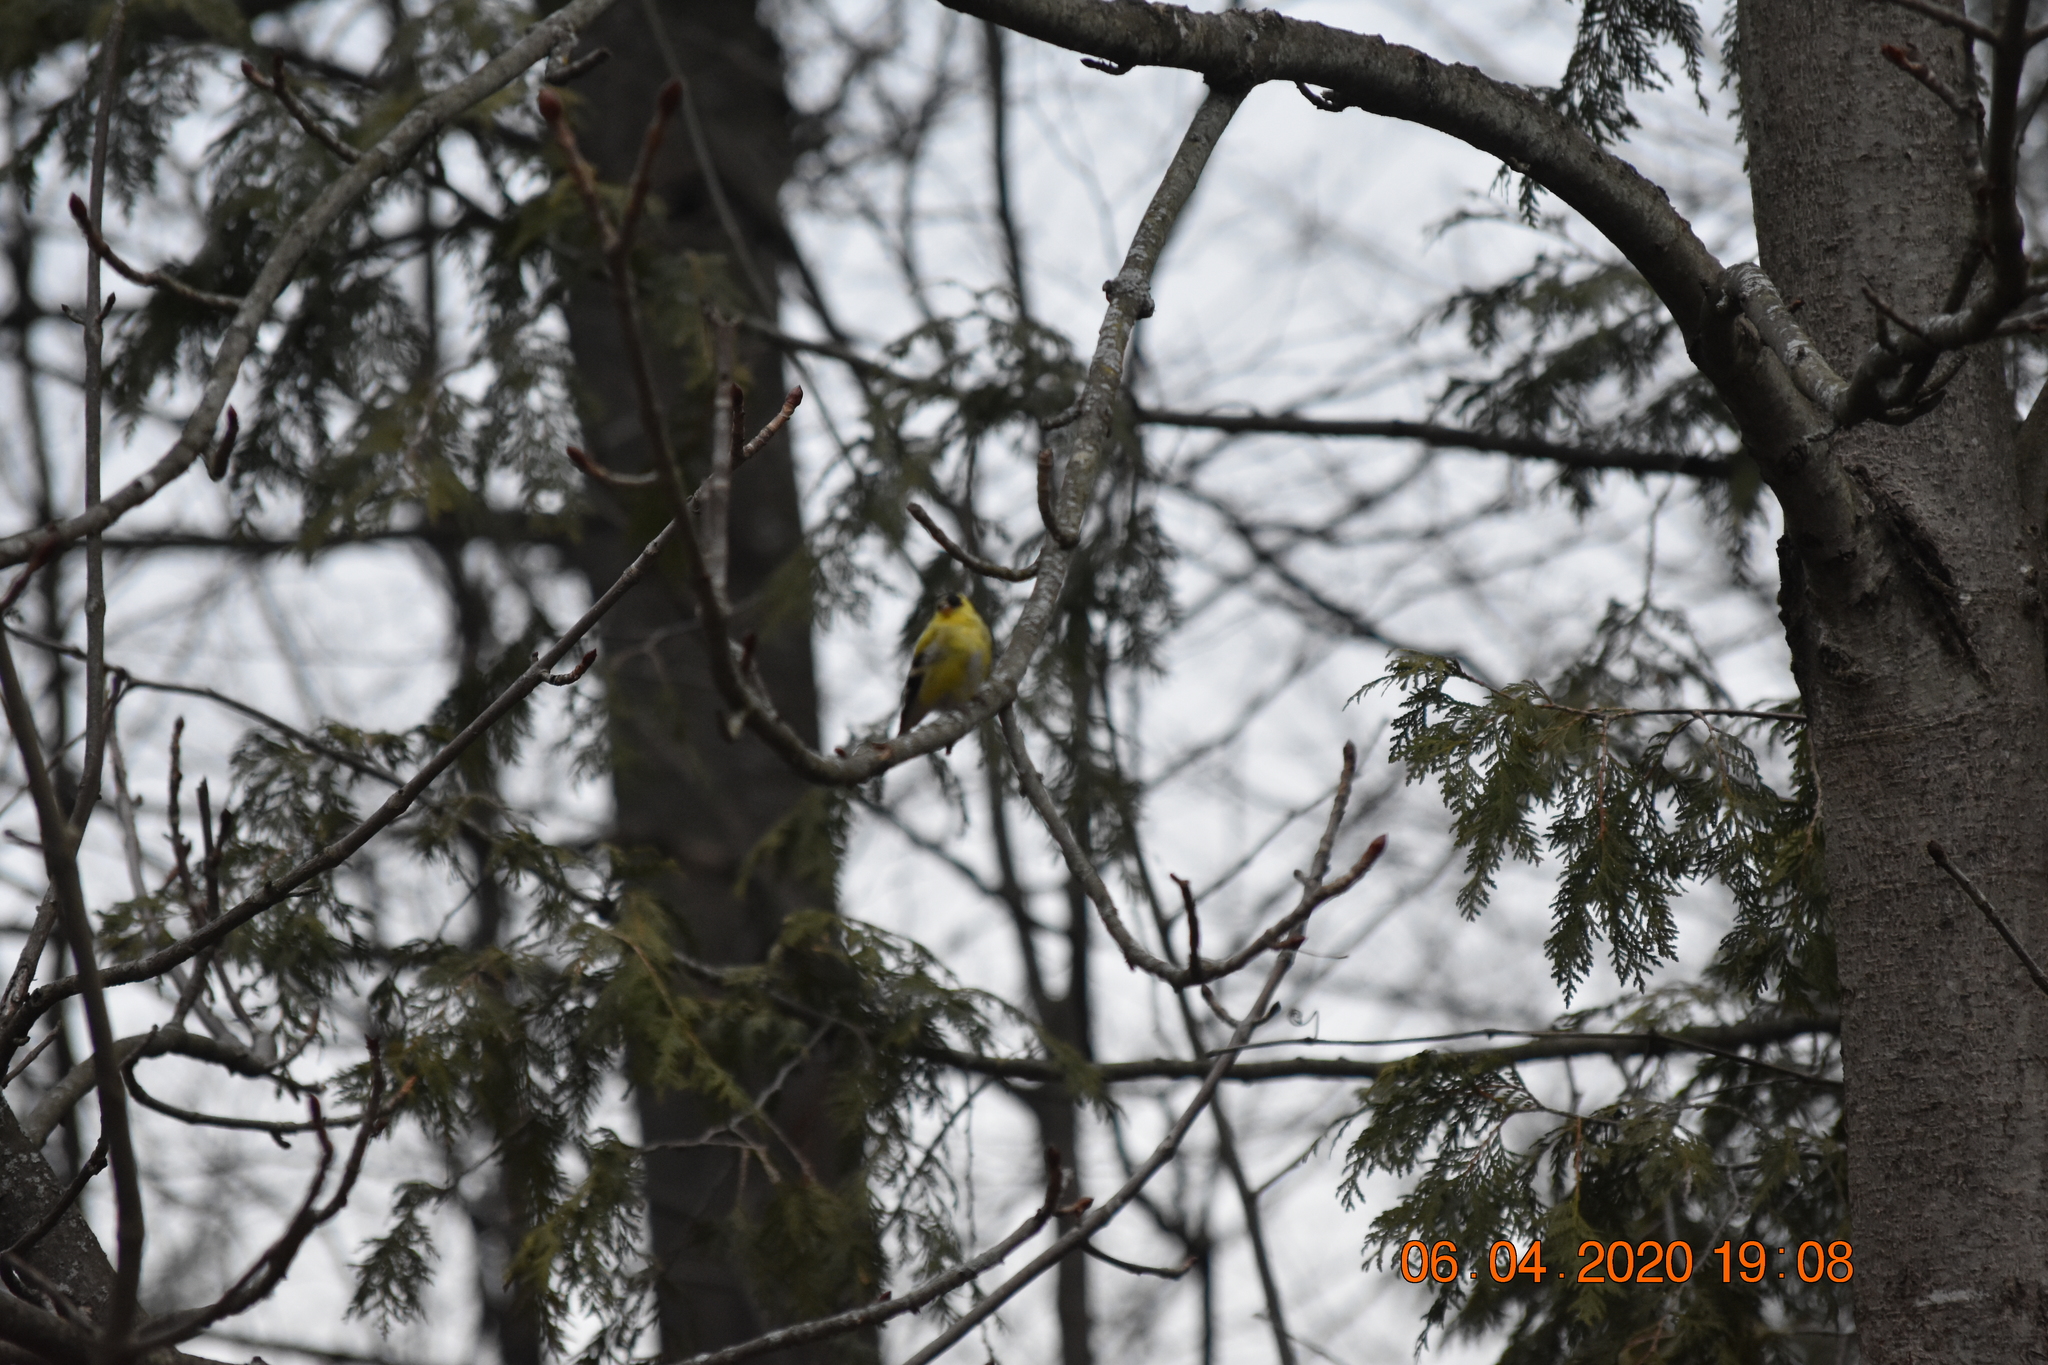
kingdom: Animalia
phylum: Chordata
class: Aves
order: Passeriformes
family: Fringillidae
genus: Spinus
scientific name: Spinus tristis
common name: American goldfinch
